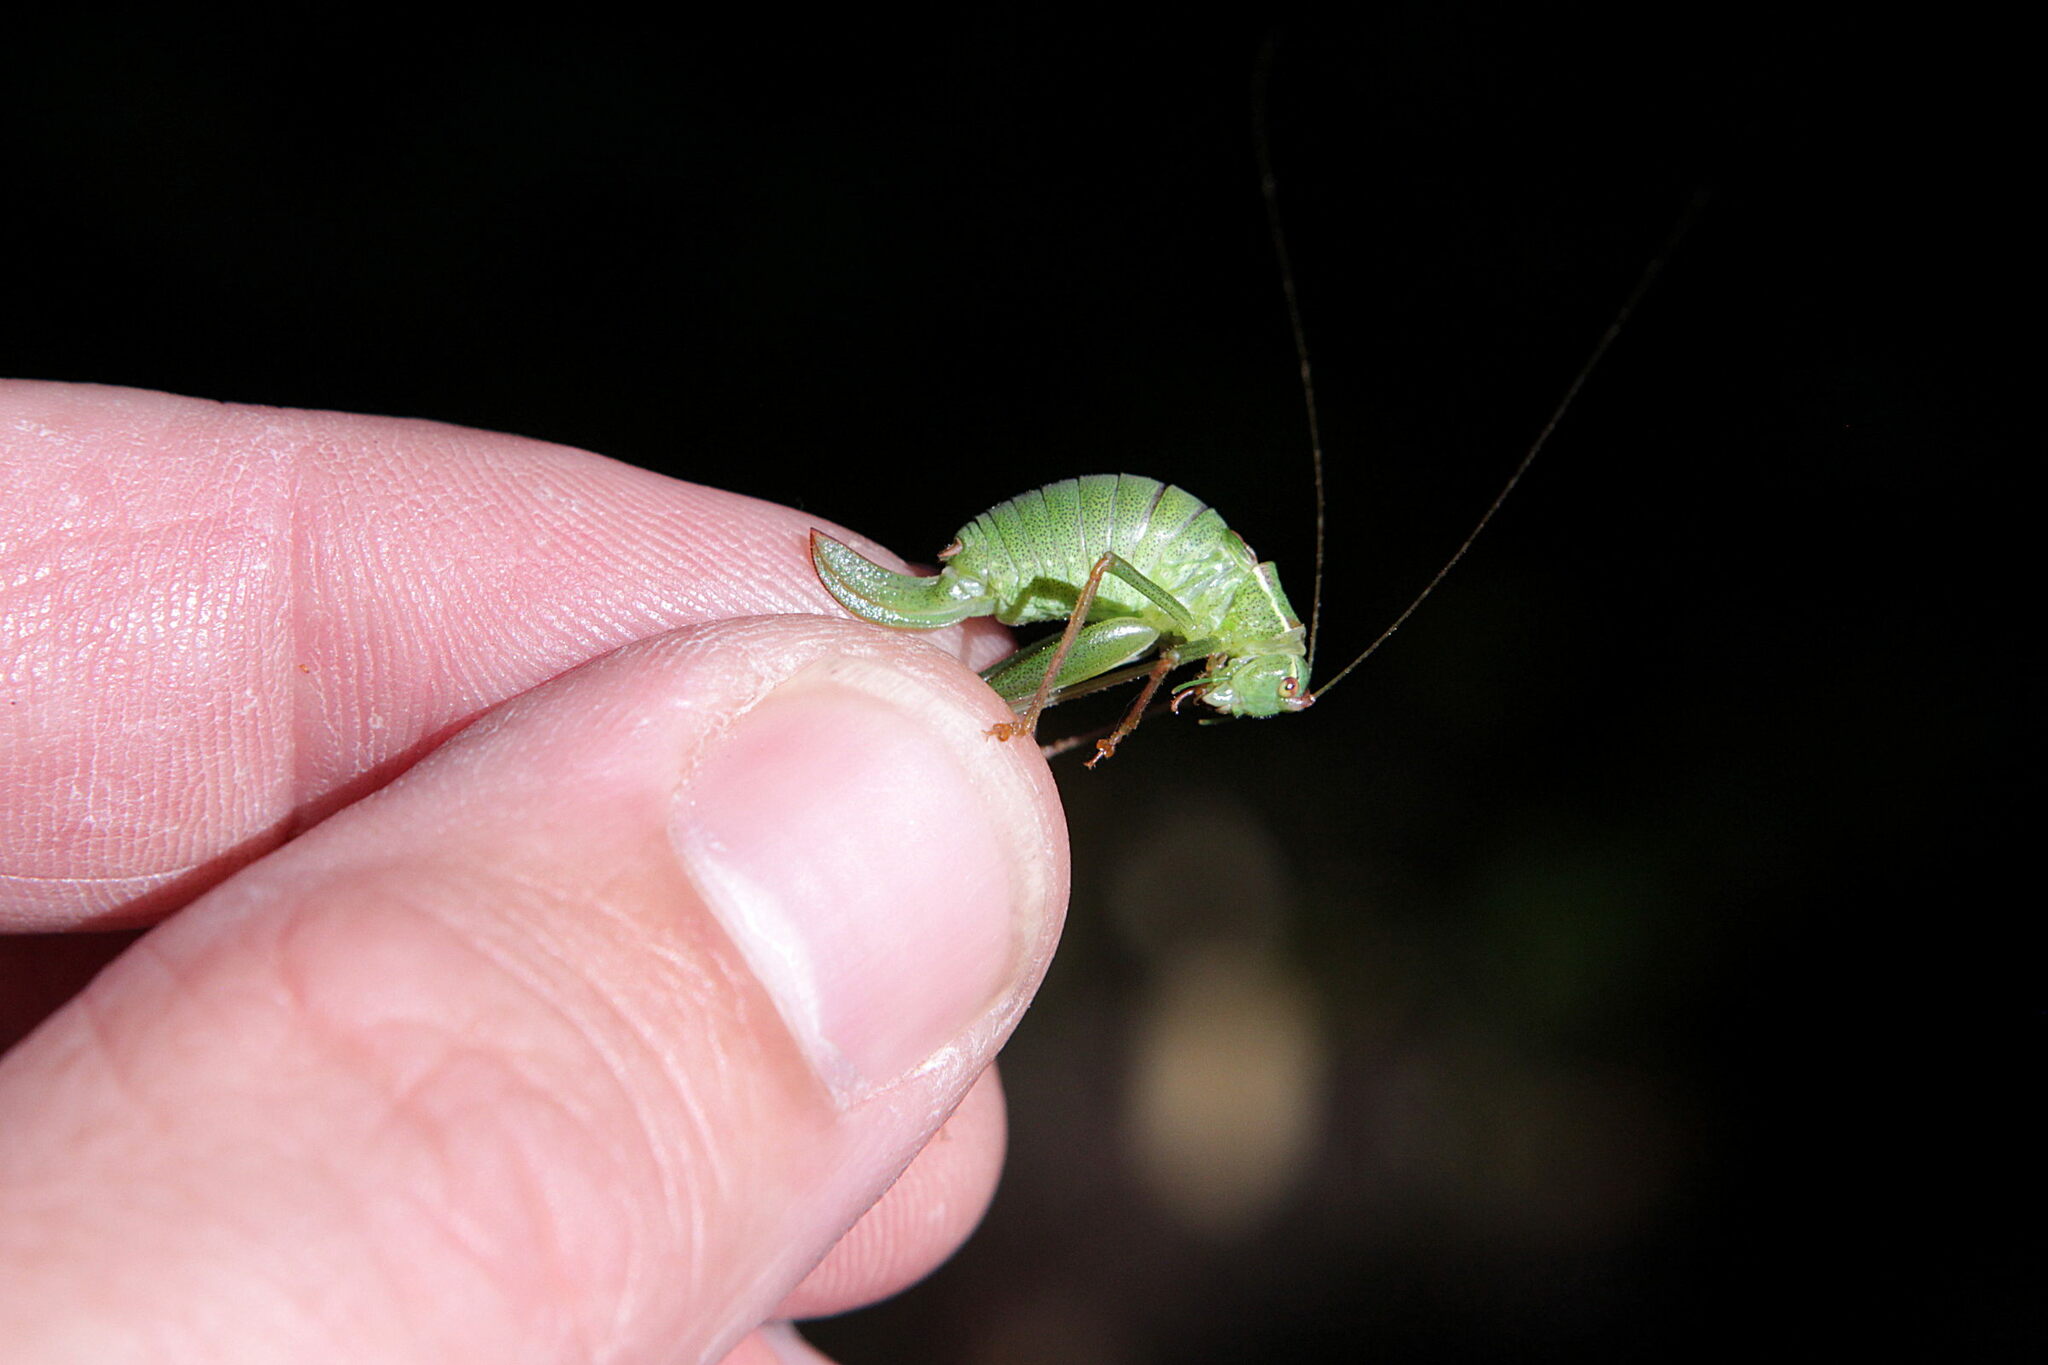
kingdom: Animalia
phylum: Arthropoda
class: Insecta
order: Orthoptera
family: Tettigoniidae
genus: Leptophyes
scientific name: Leptophyes punctatissima
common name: Speckled bush-cricket
